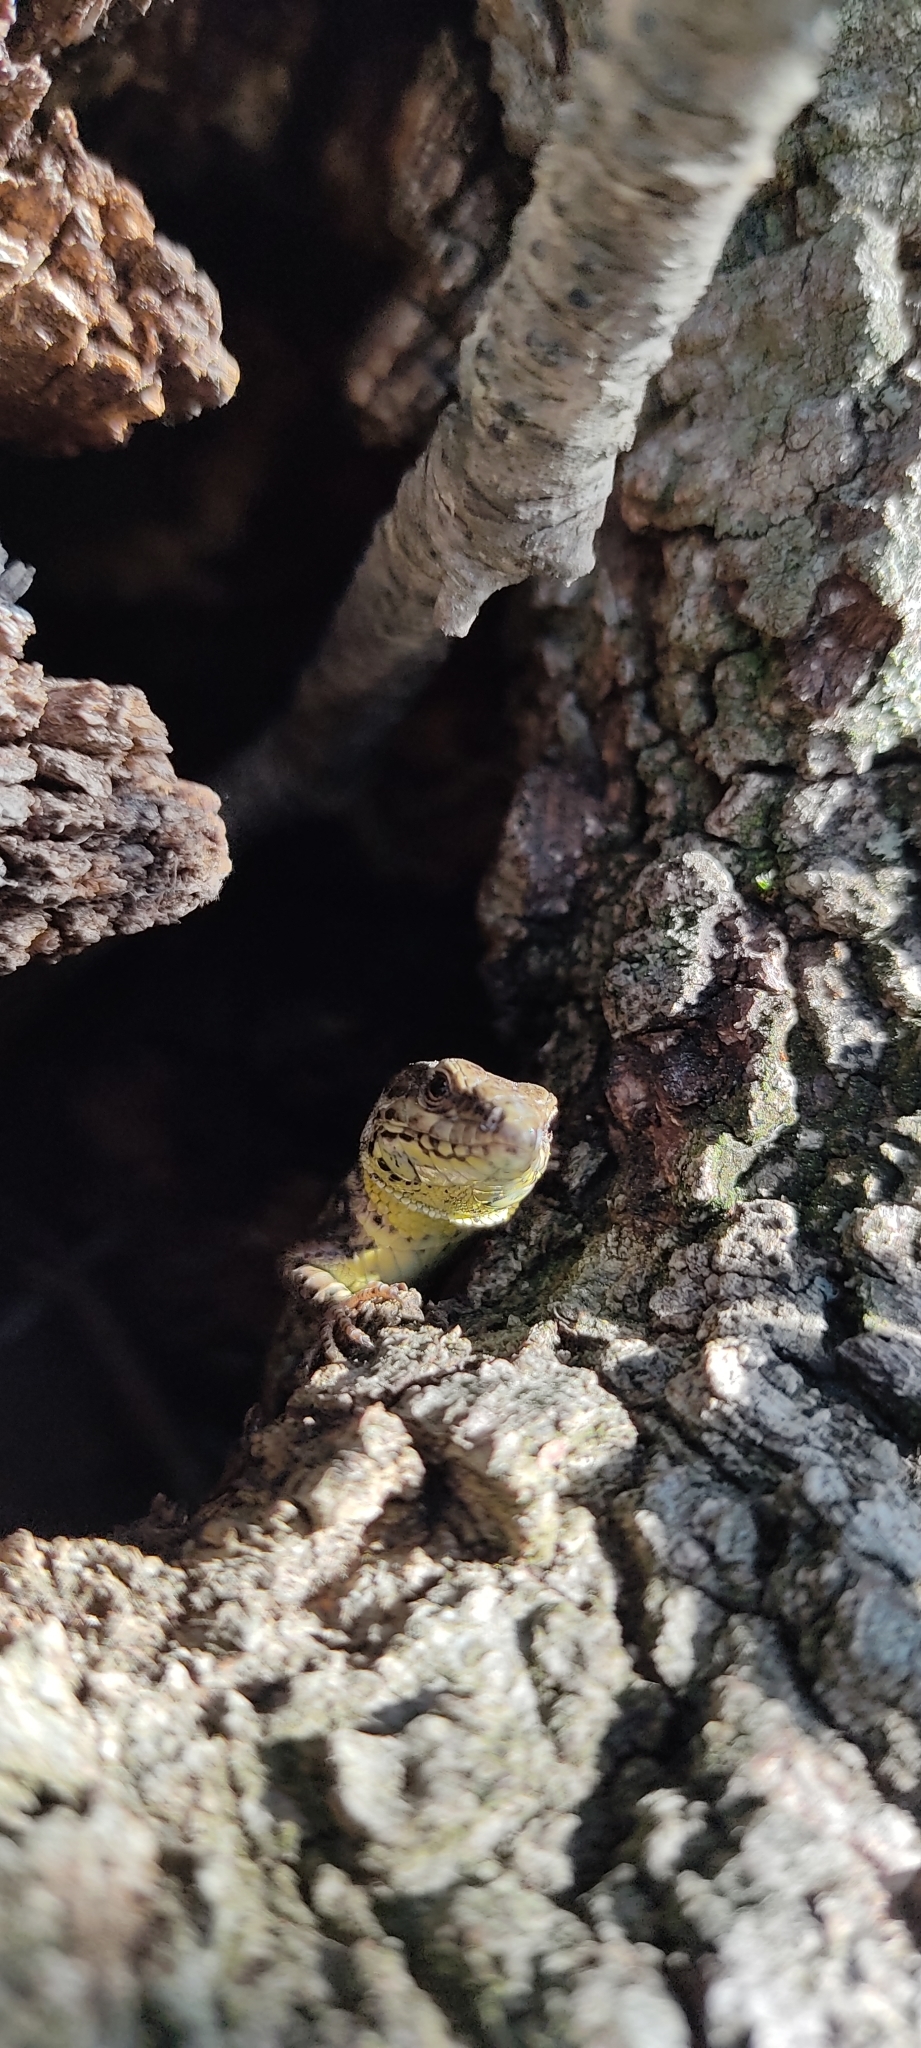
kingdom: Animalia
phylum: Chordata
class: Squamata
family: Lacertidae
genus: Podarcis
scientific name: Podarcis muralis
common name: Common wall lizard
